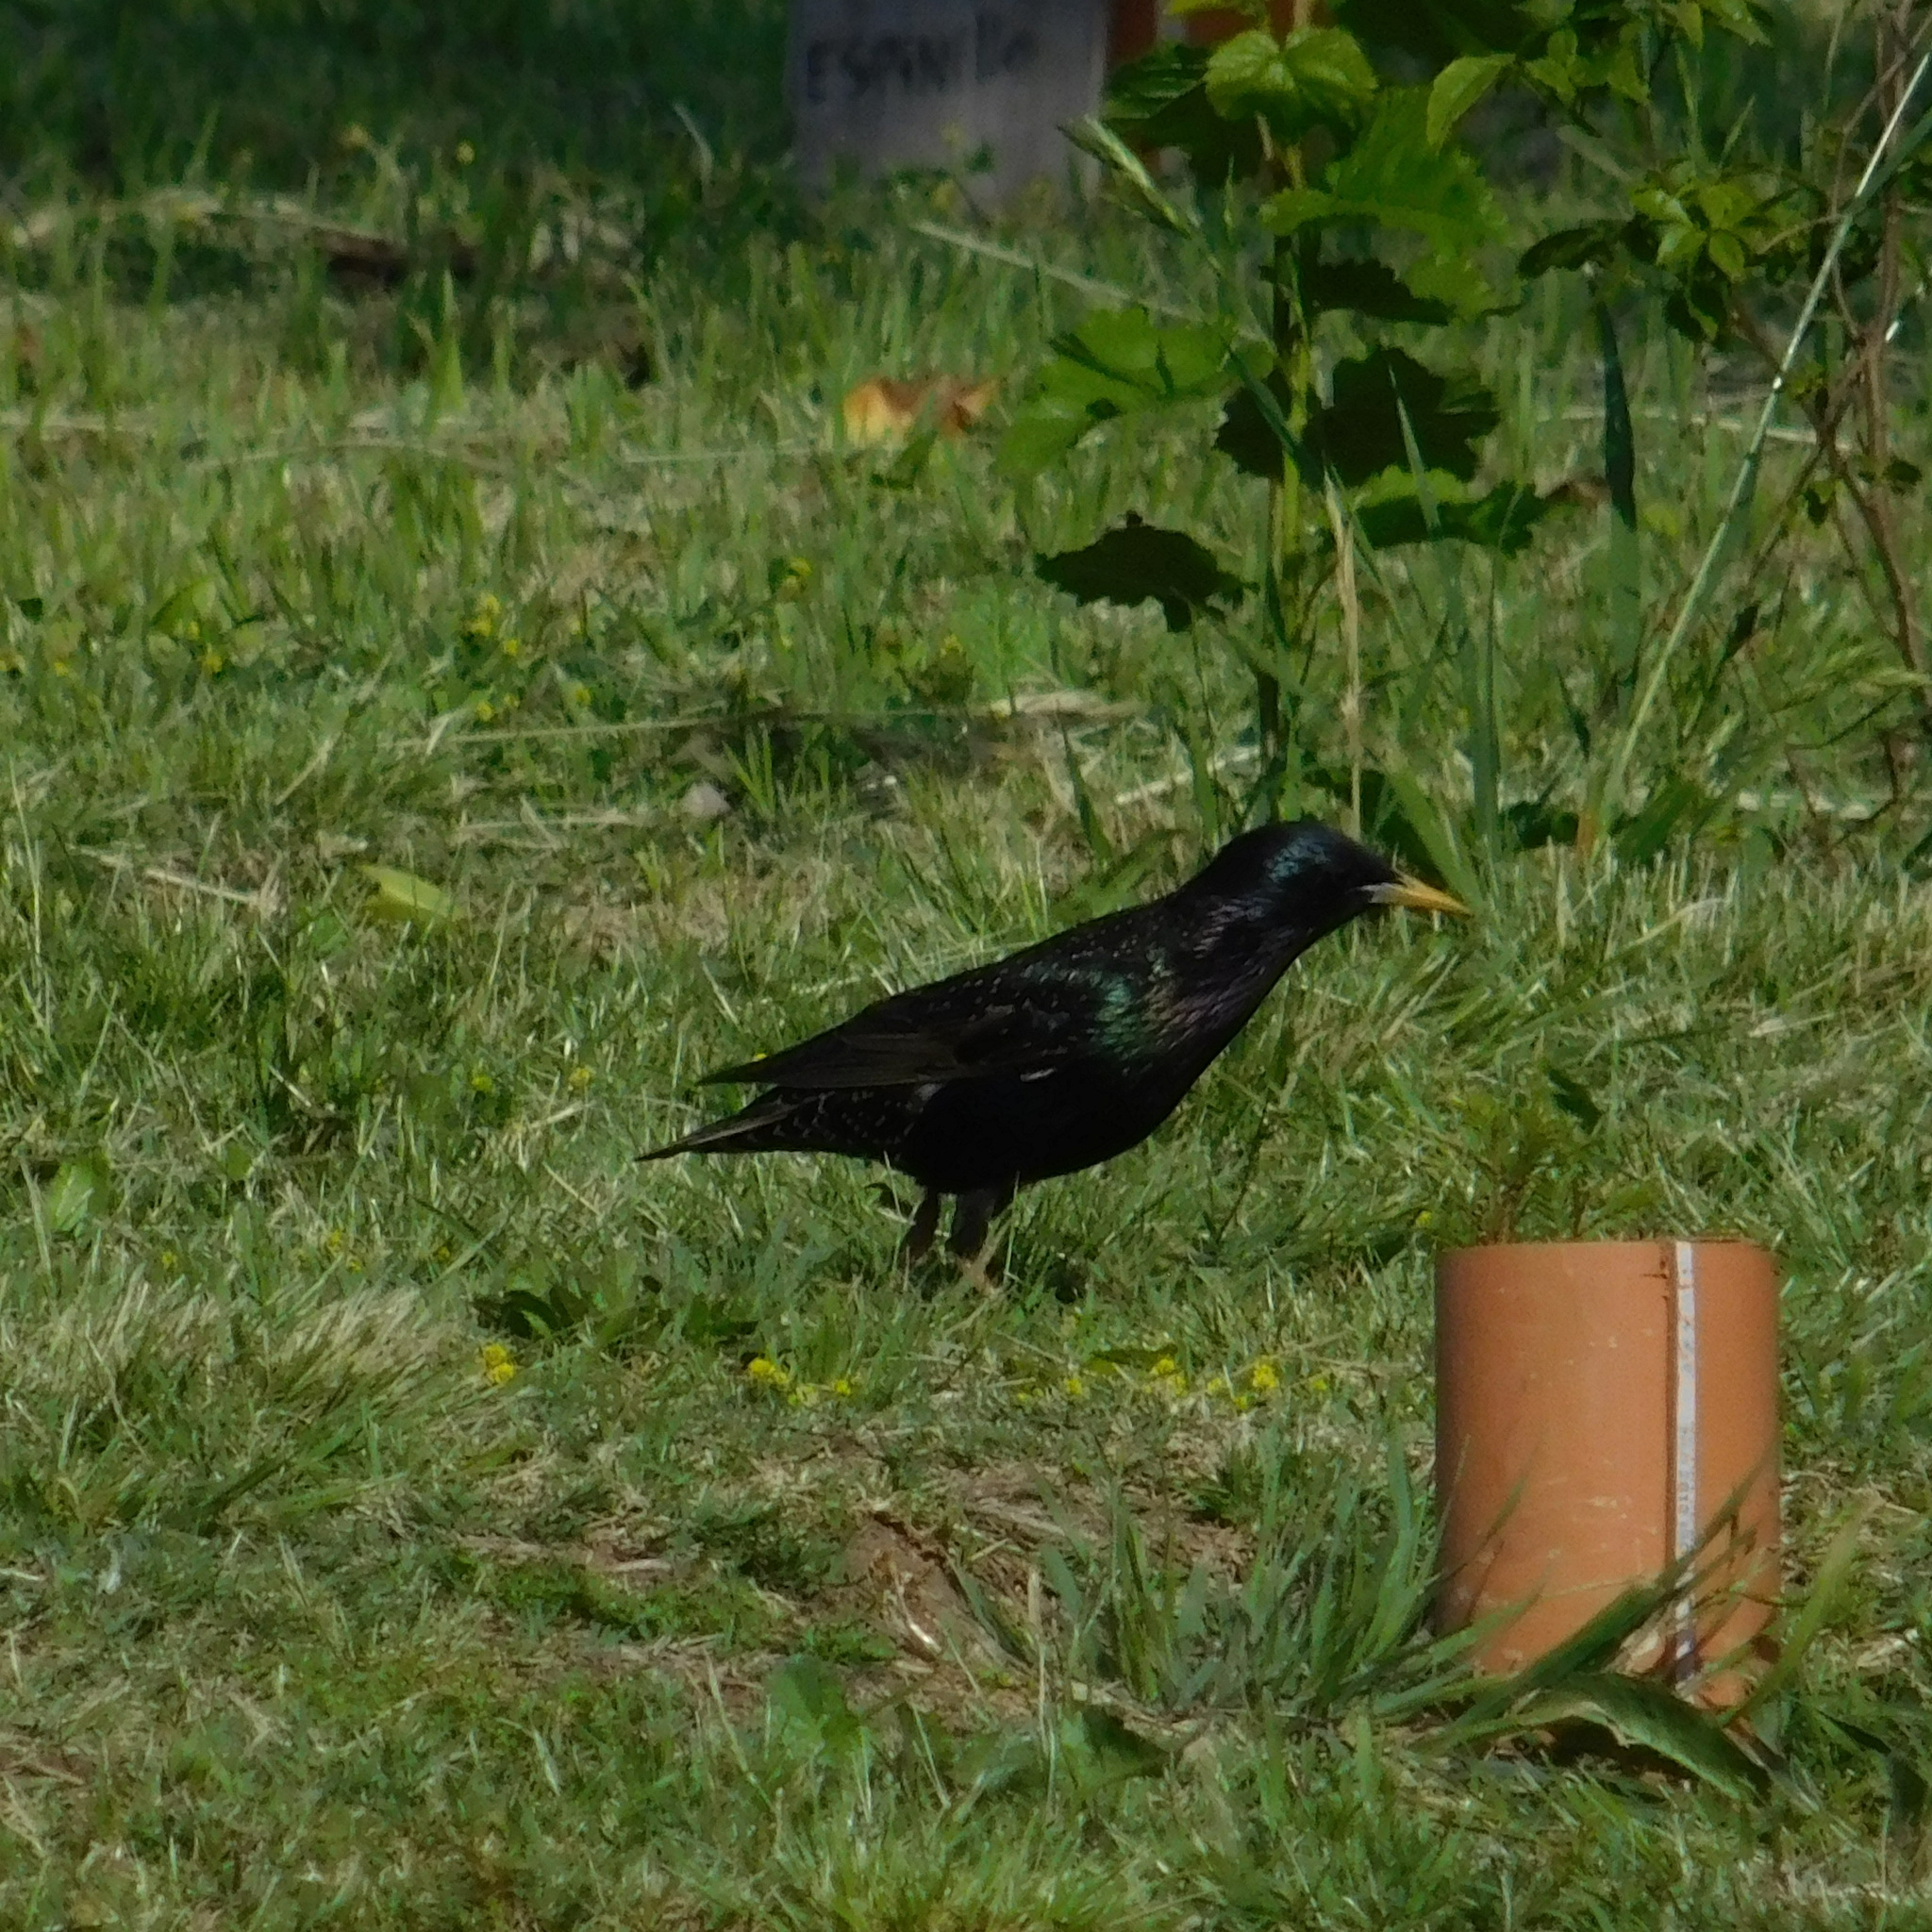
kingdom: Animalia
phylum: Chordata
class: Aves
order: Passeriformes
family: Sturnidae
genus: Sturnus
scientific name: Sturnus vulgaris
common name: Common starling
